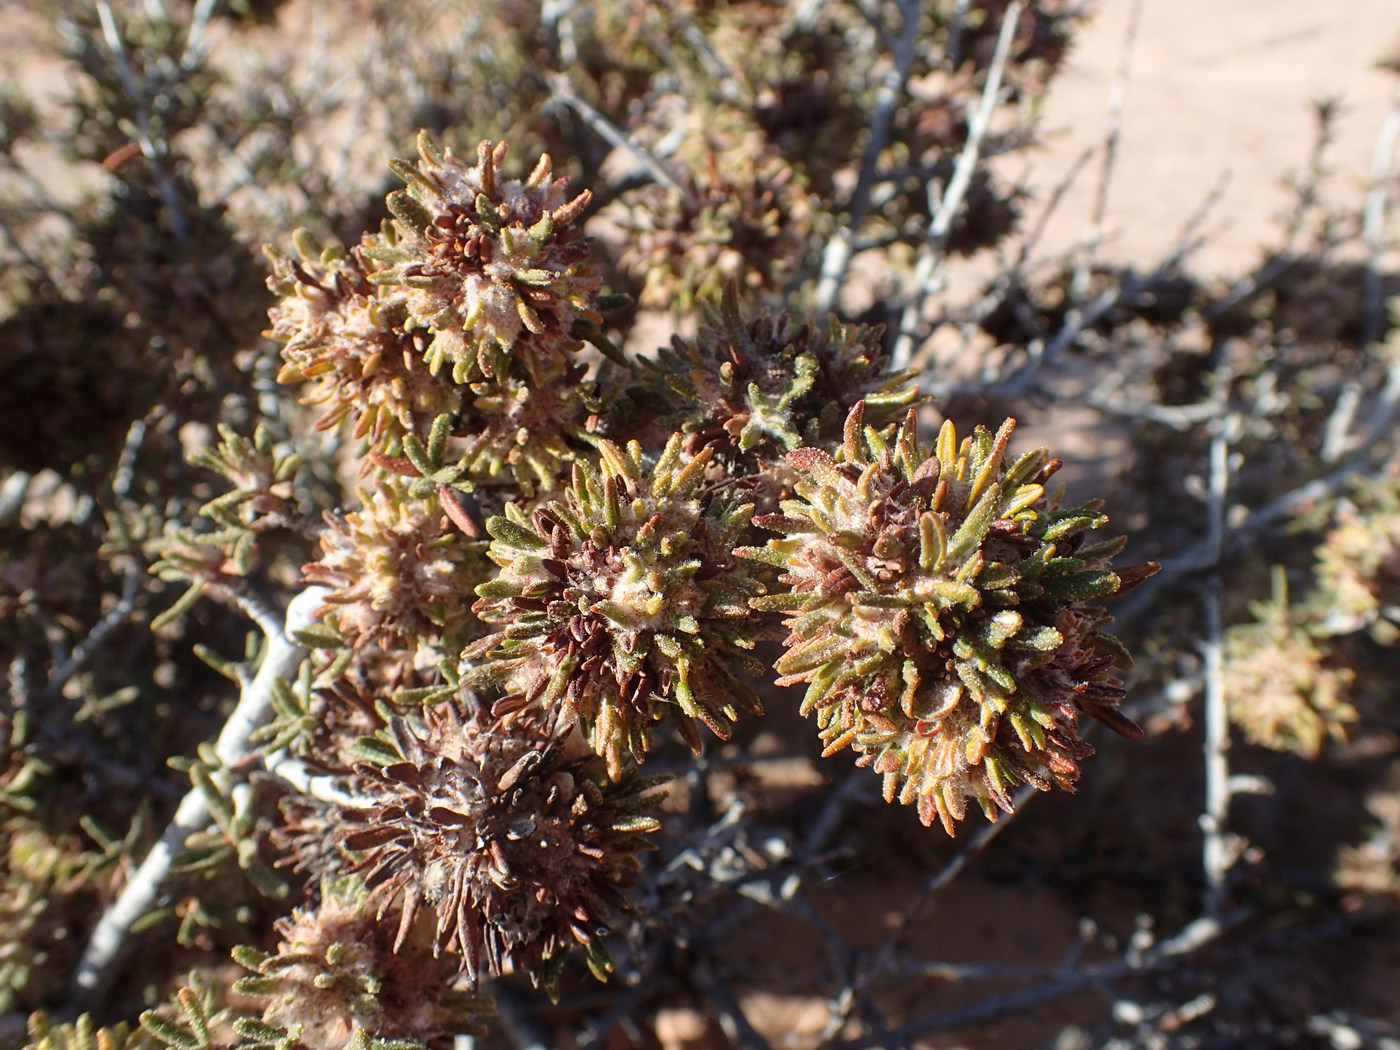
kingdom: Plantae
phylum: Tracheophyta
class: Magnoliopsida
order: Rosales
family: Rosaceae
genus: Cercocarpus
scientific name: Cercocarpus intricatus
